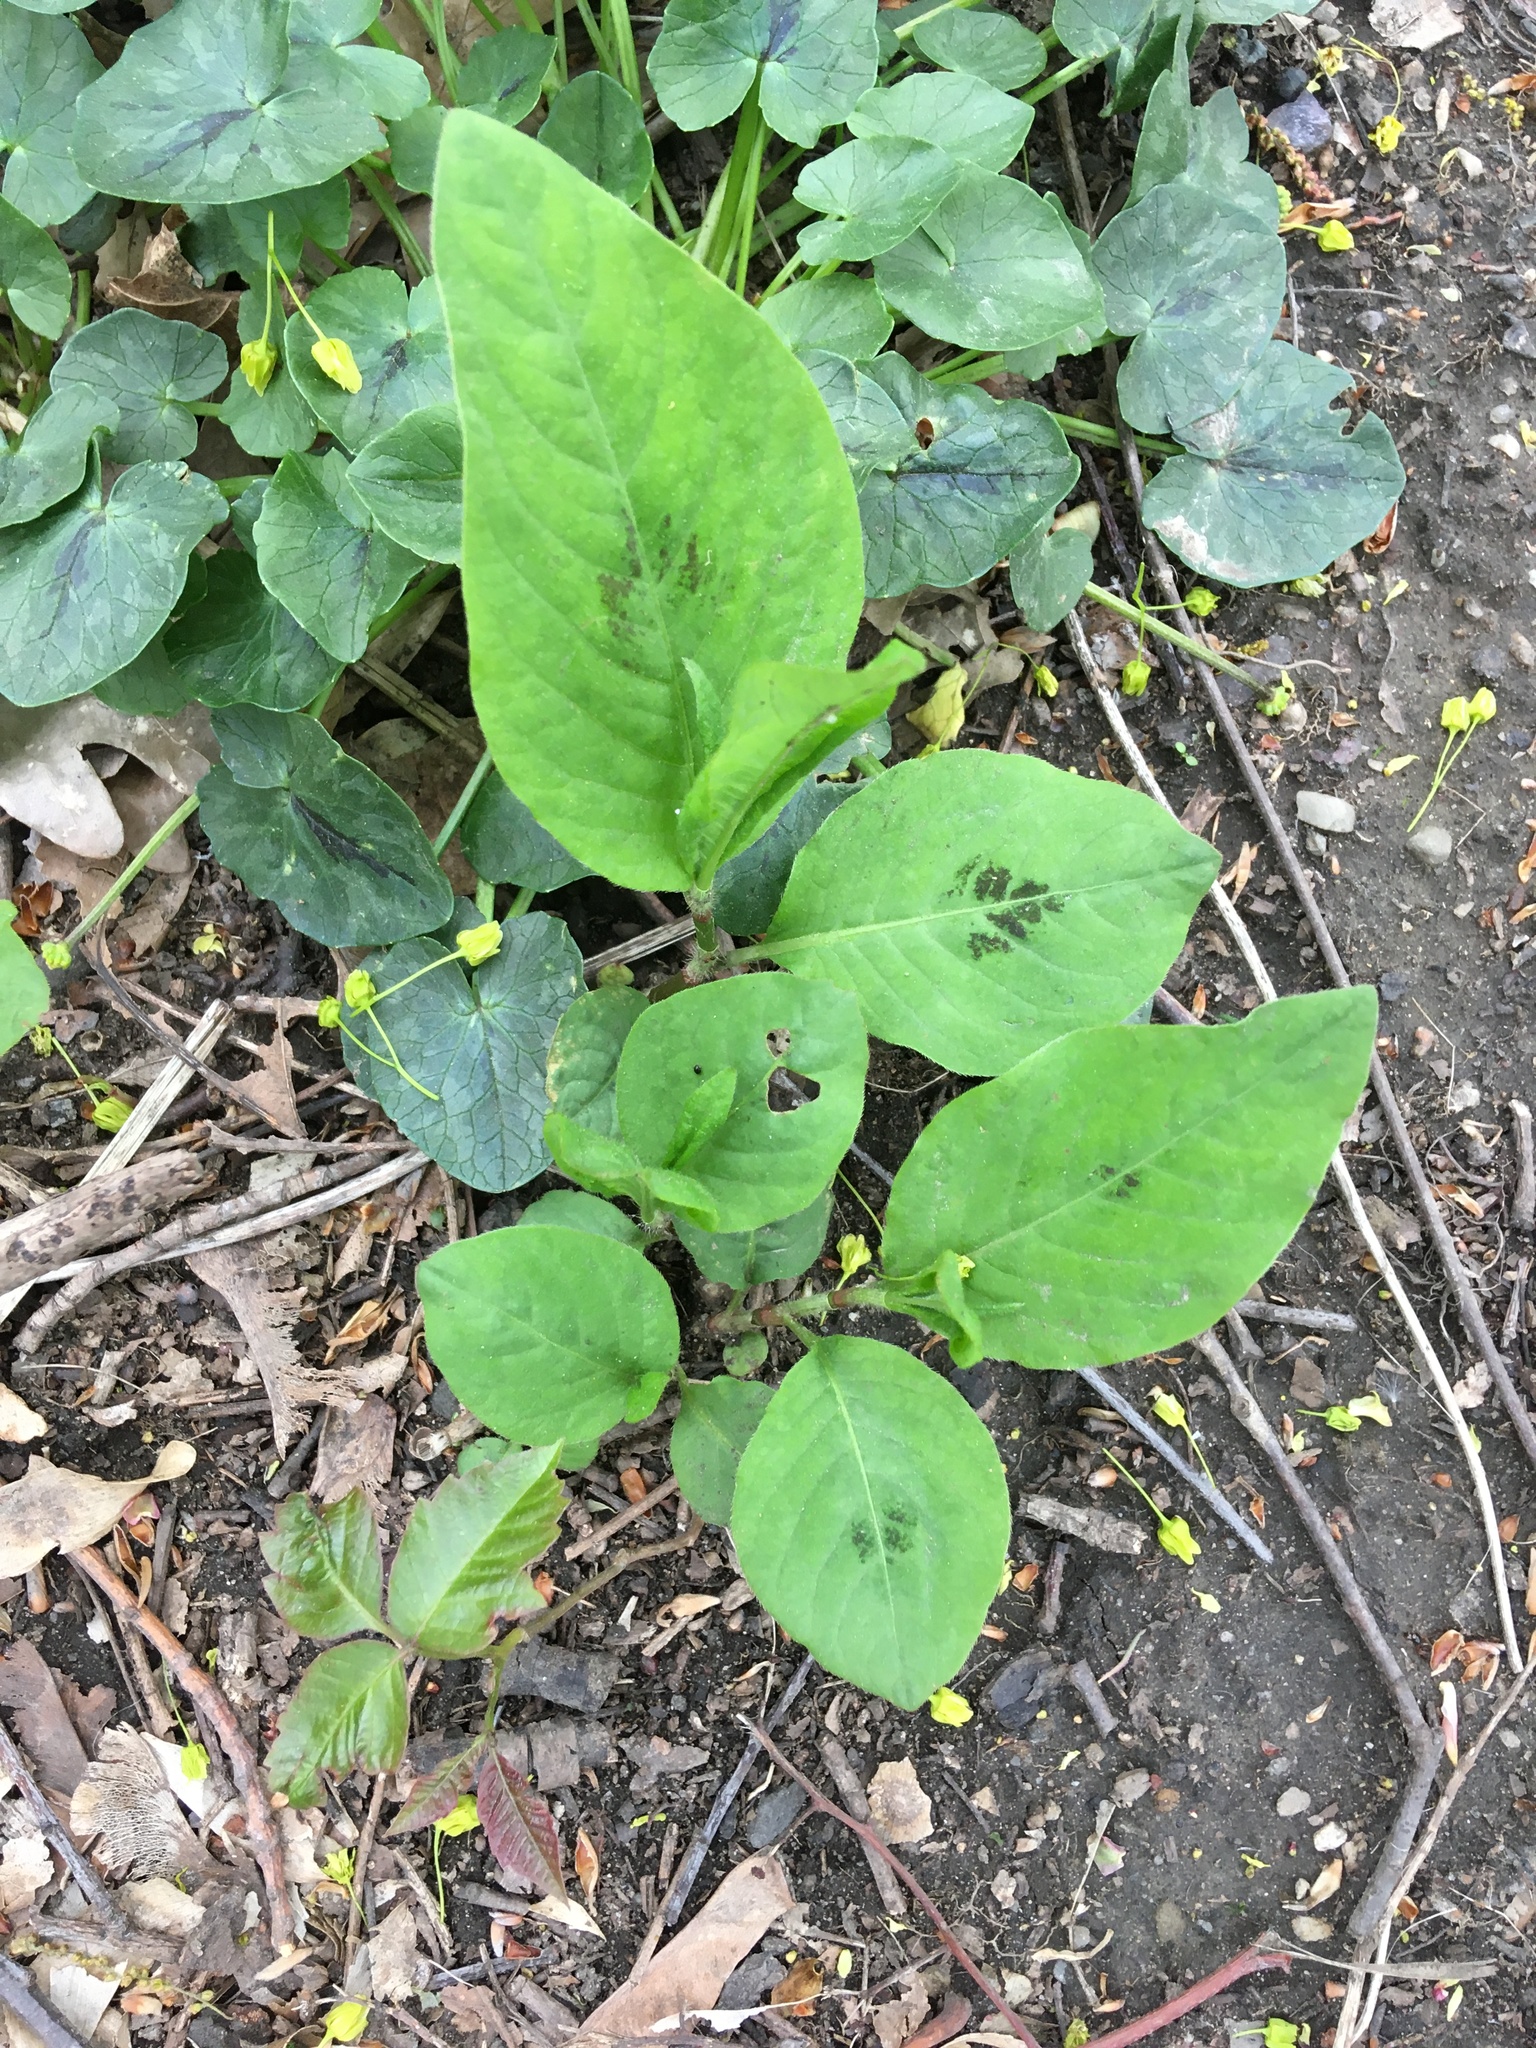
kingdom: Plantae
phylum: Tracheophyta
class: Magnoliopsida
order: Caryophyllales
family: Polygonaceae
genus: Persicaria
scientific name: Persicaria virginiana
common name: Jumpseed
